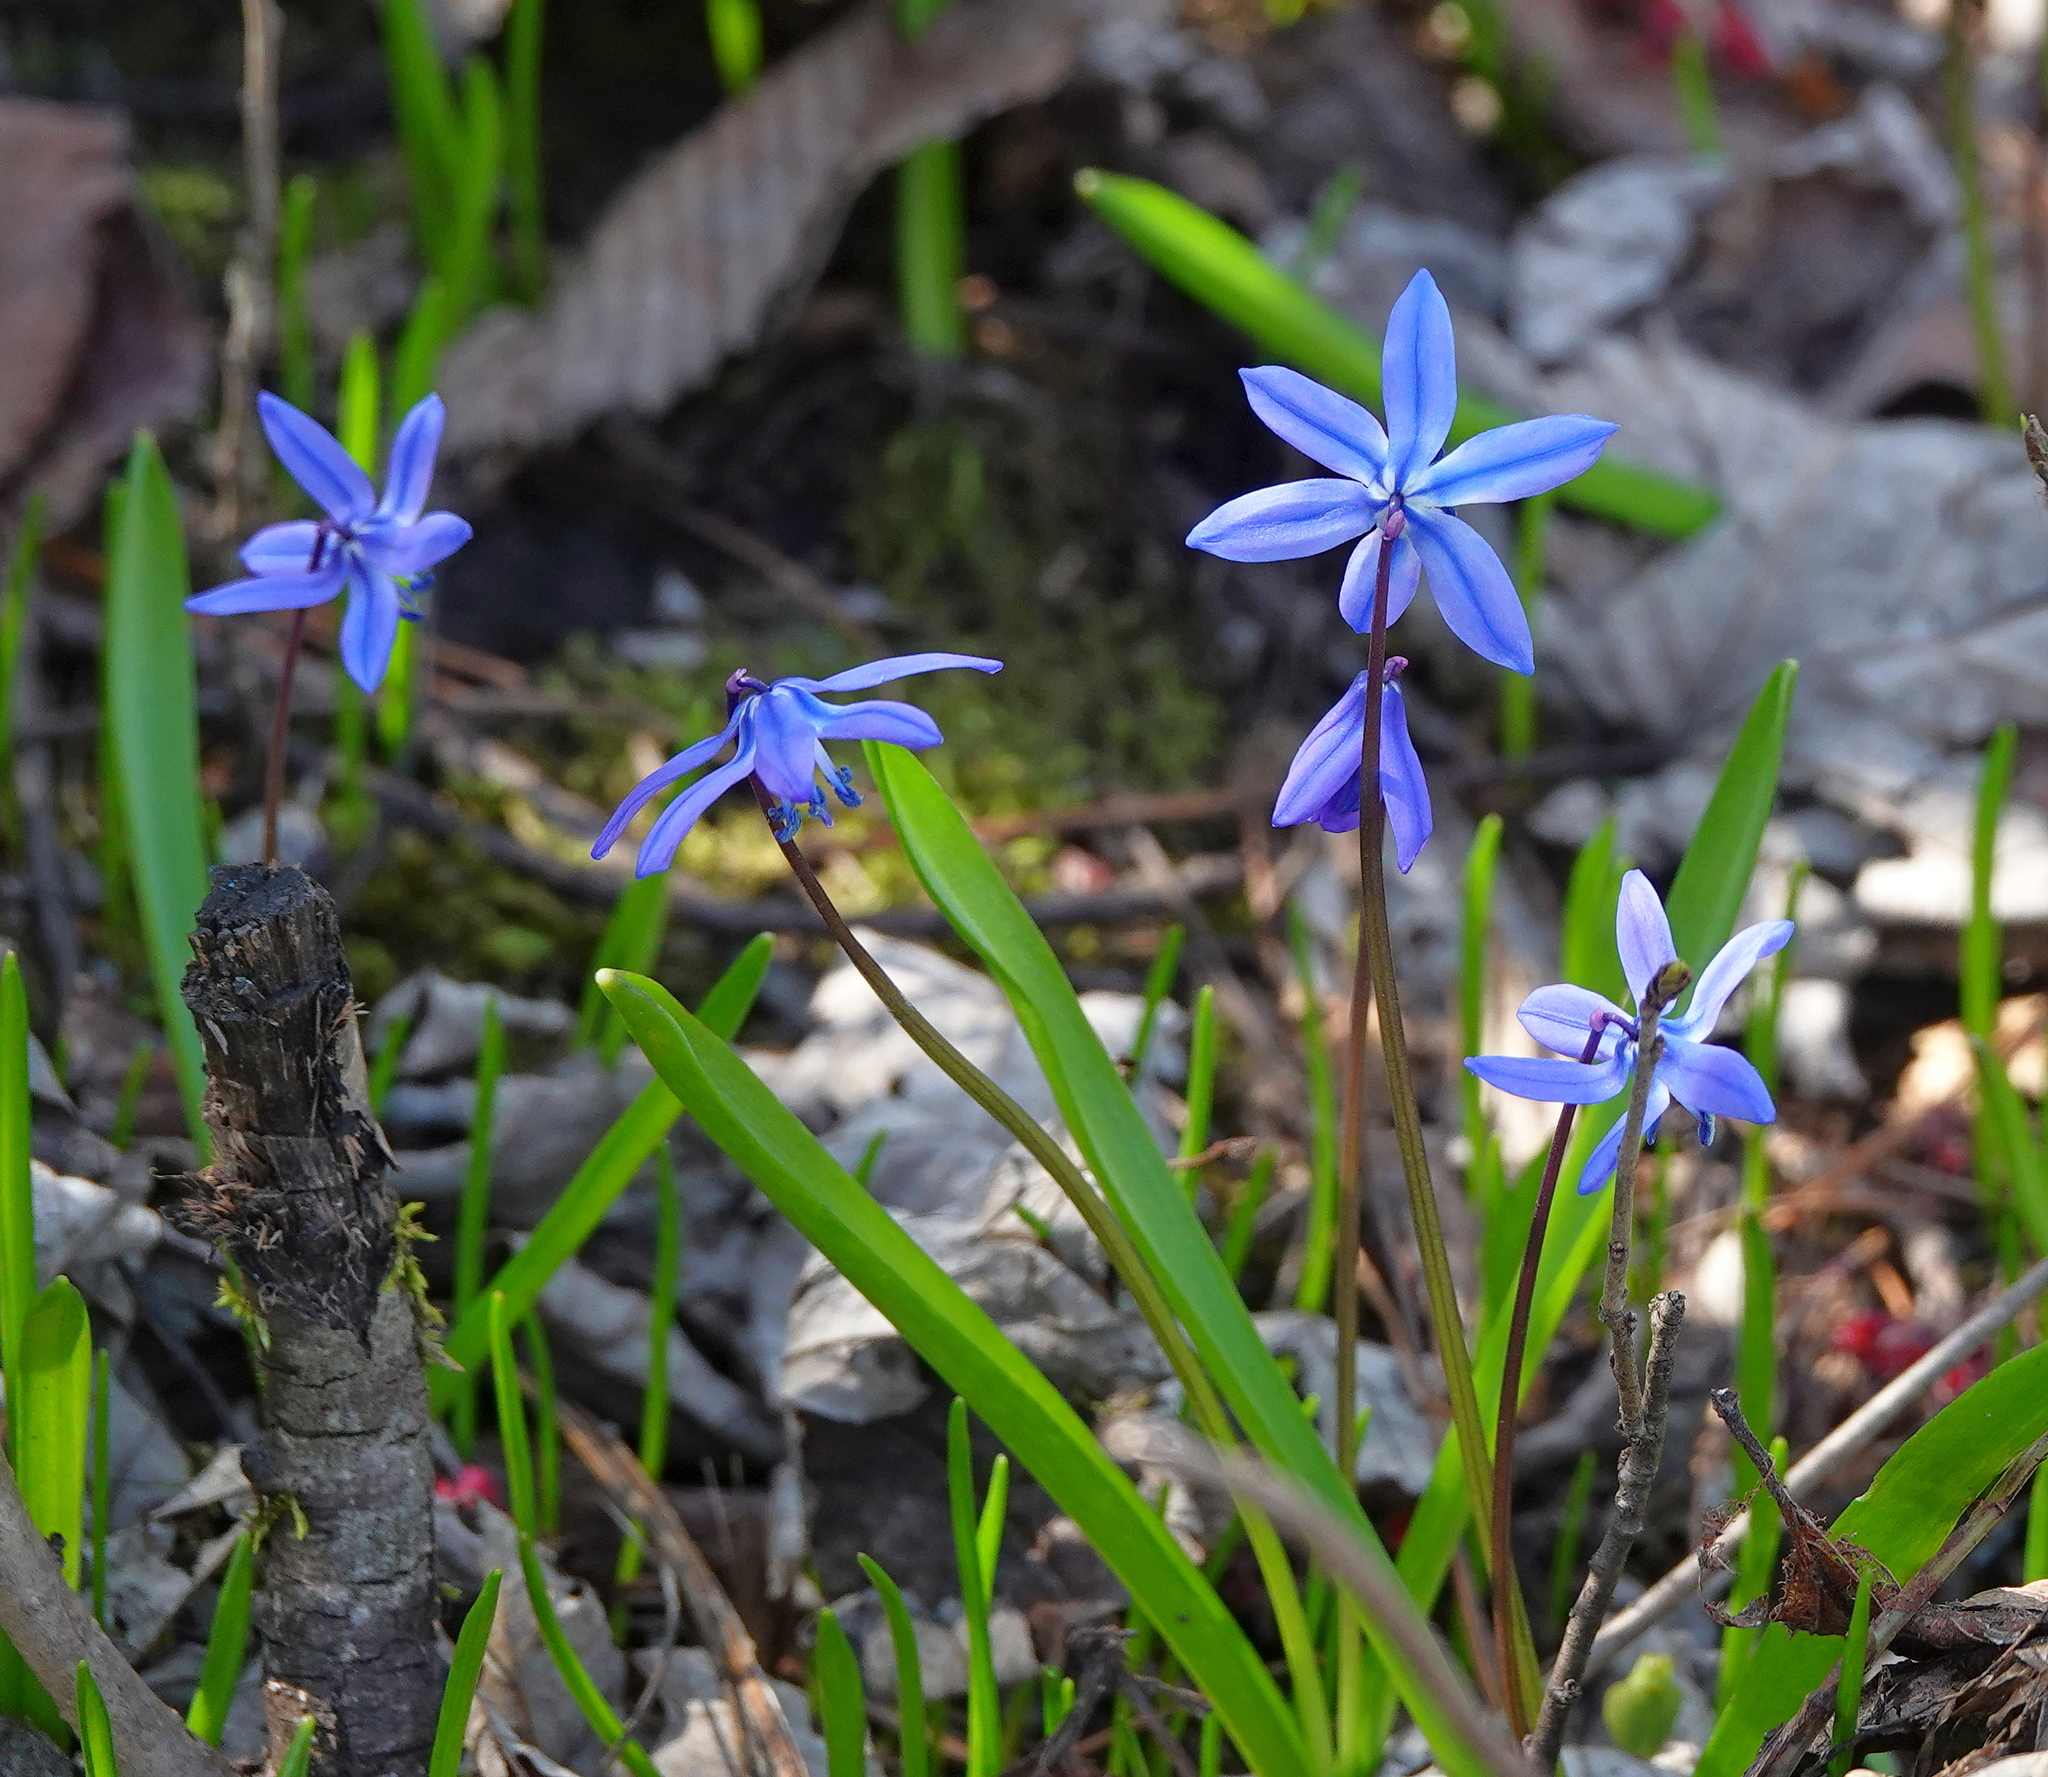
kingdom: Plantae
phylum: Tracheophyta
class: Liliopsida
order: Asparagales
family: Asparagaceae
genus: Scilla
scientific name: Scilla siberica
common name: Siberian squill
